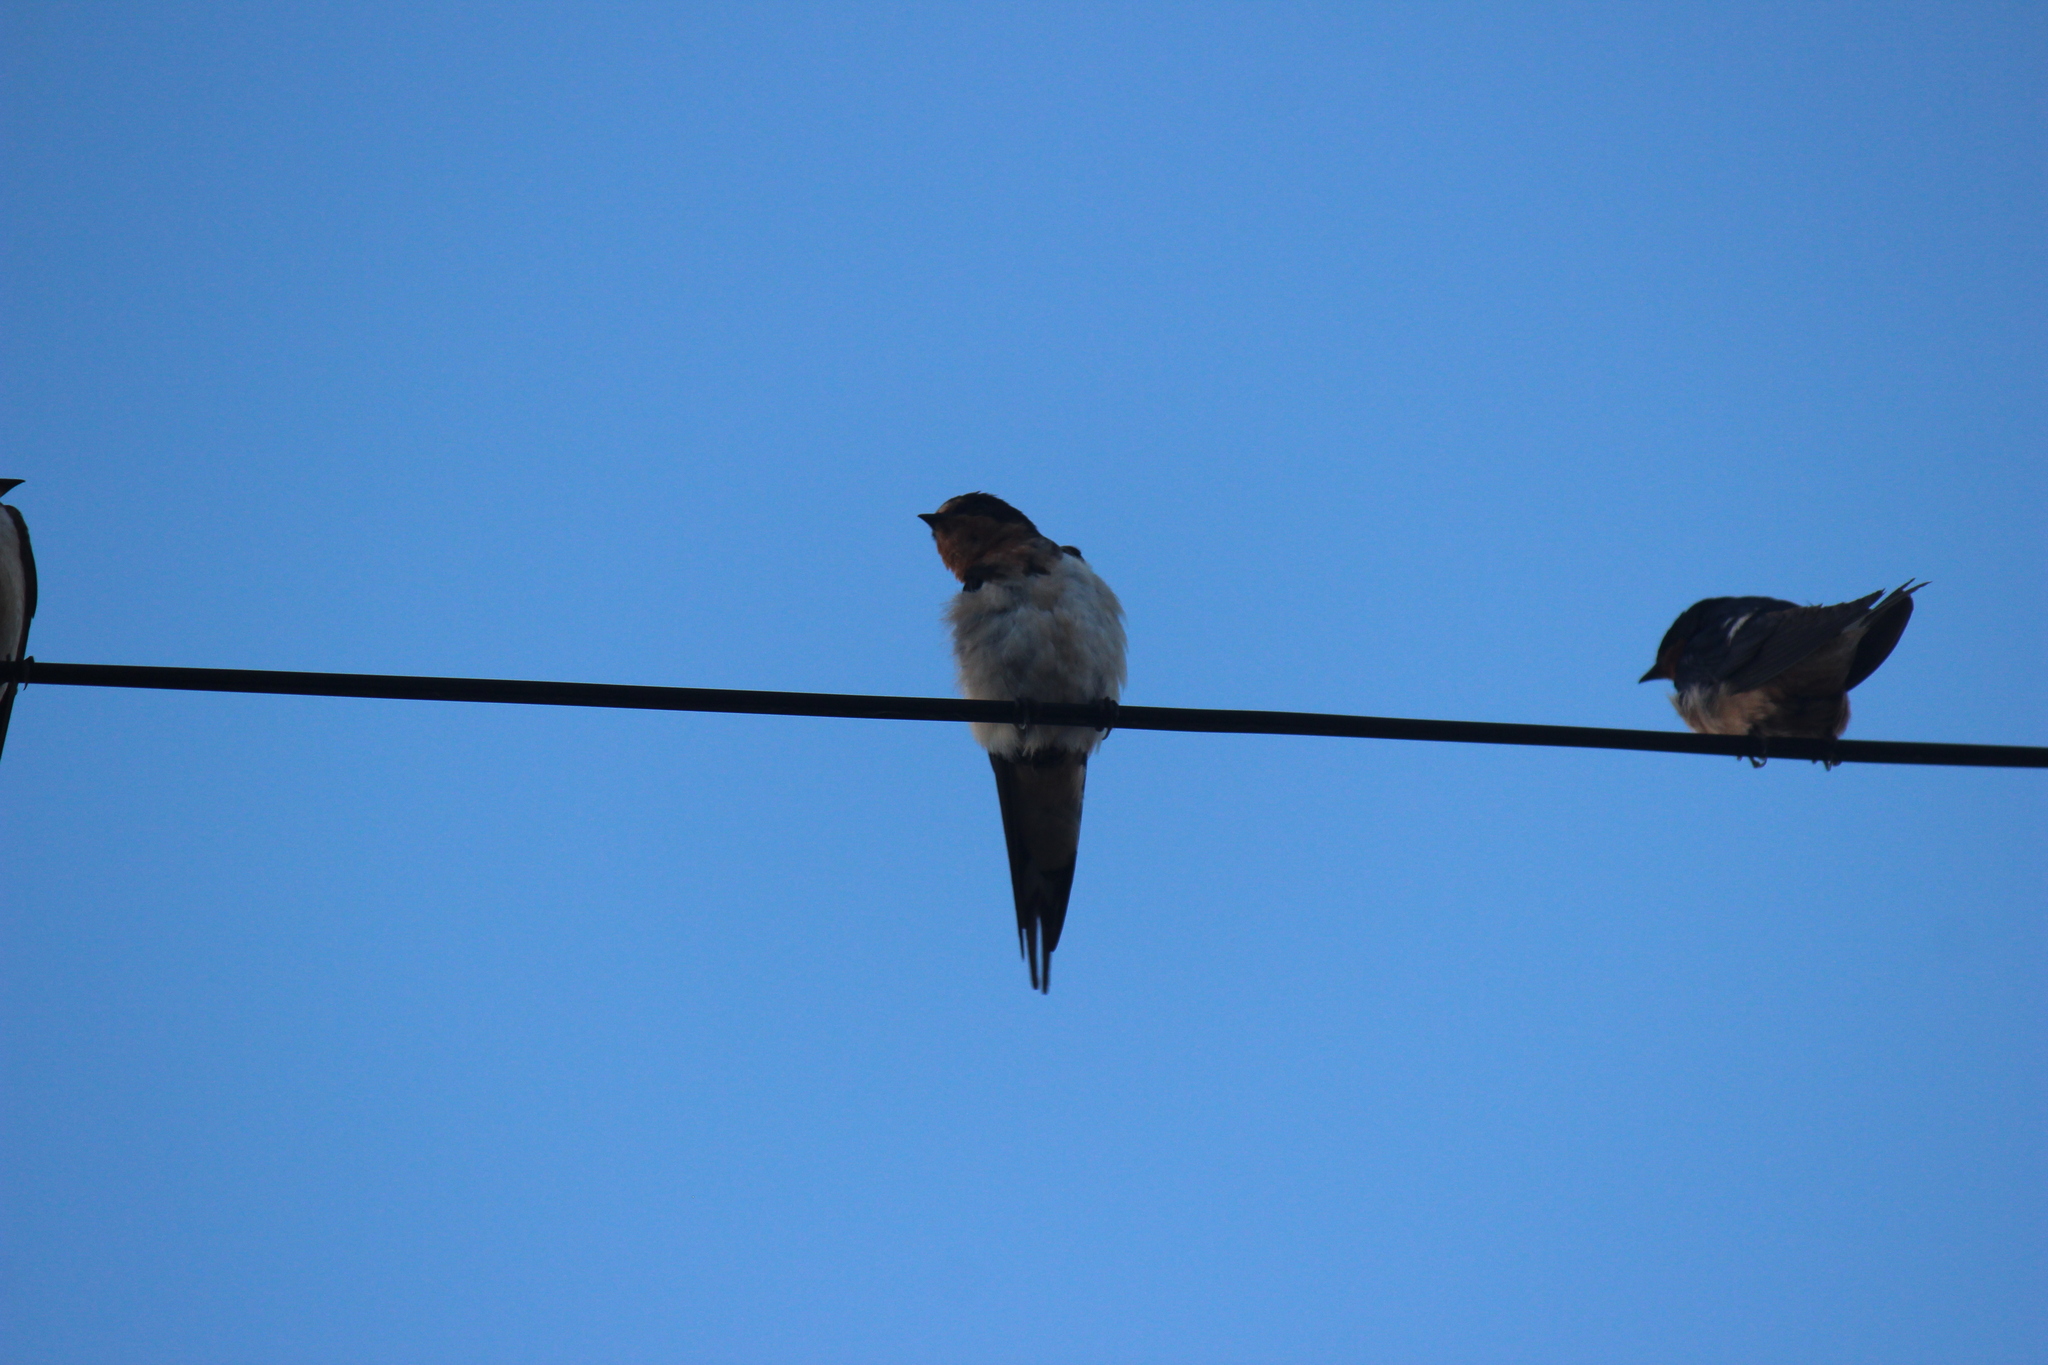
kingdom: Animalia
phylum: Chordata
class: Aves
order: Passeriformes
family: Hirundinidae
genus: Hirundo
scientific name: Hirundo rustica
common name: Barn swallow
